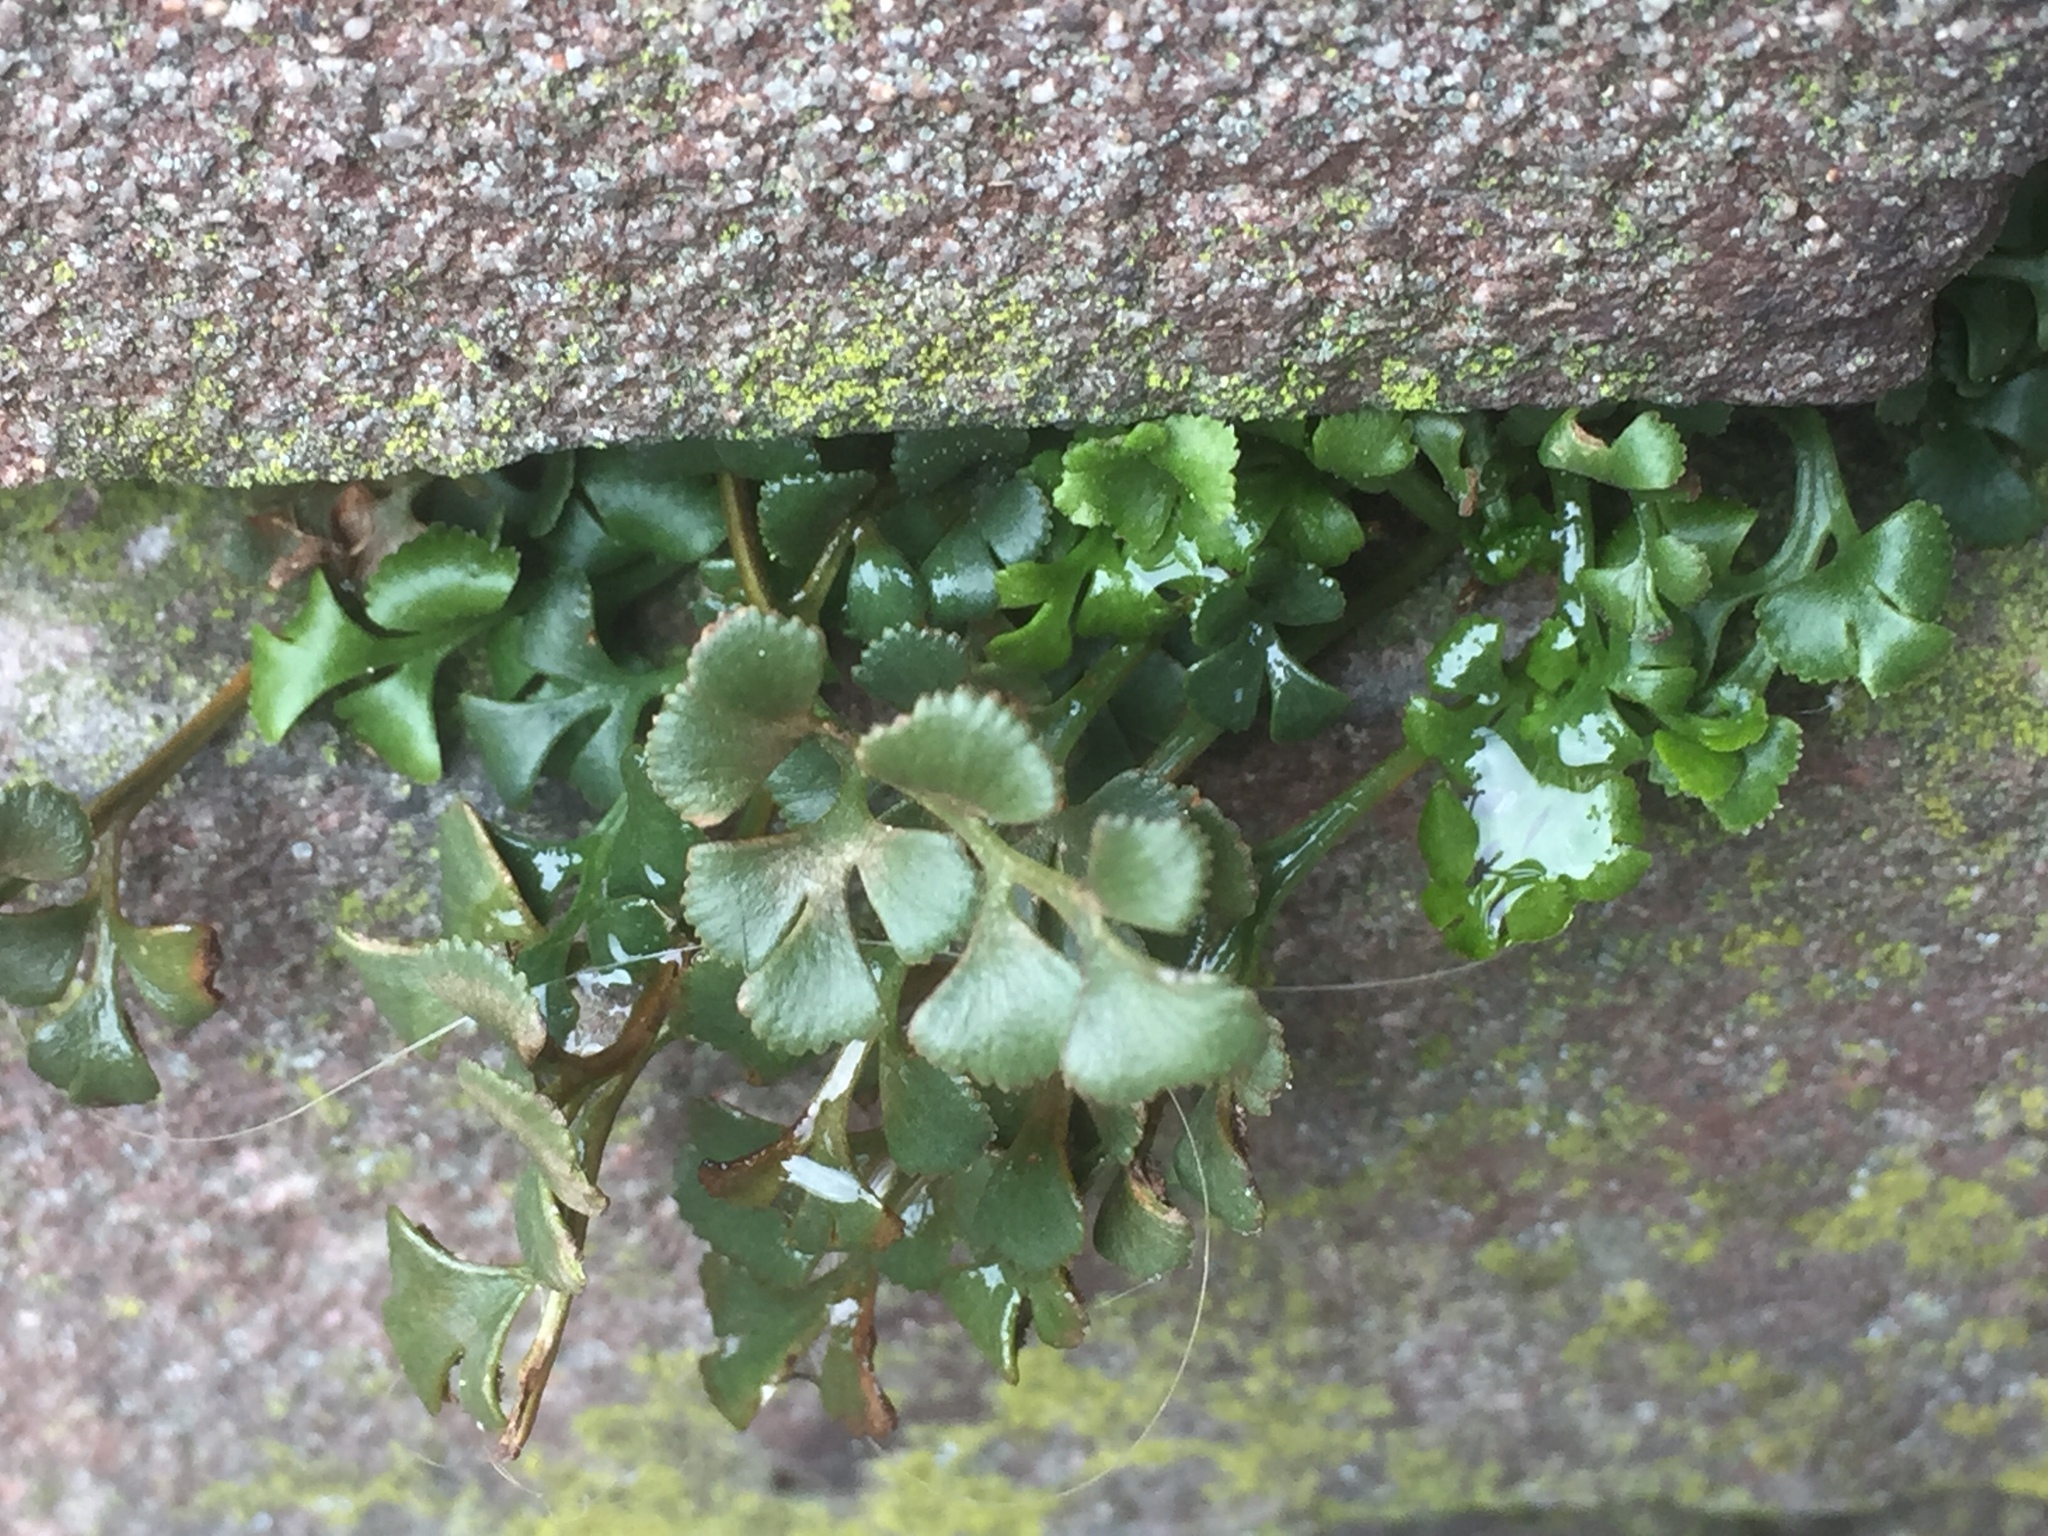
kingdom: Plantae
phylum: Tracheophyta
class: Polypodiopsida
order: Polypodiales
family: Aspleniaceae
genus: Asplenium
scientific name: Asplenium ruta-muraria
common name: Wall-rue
